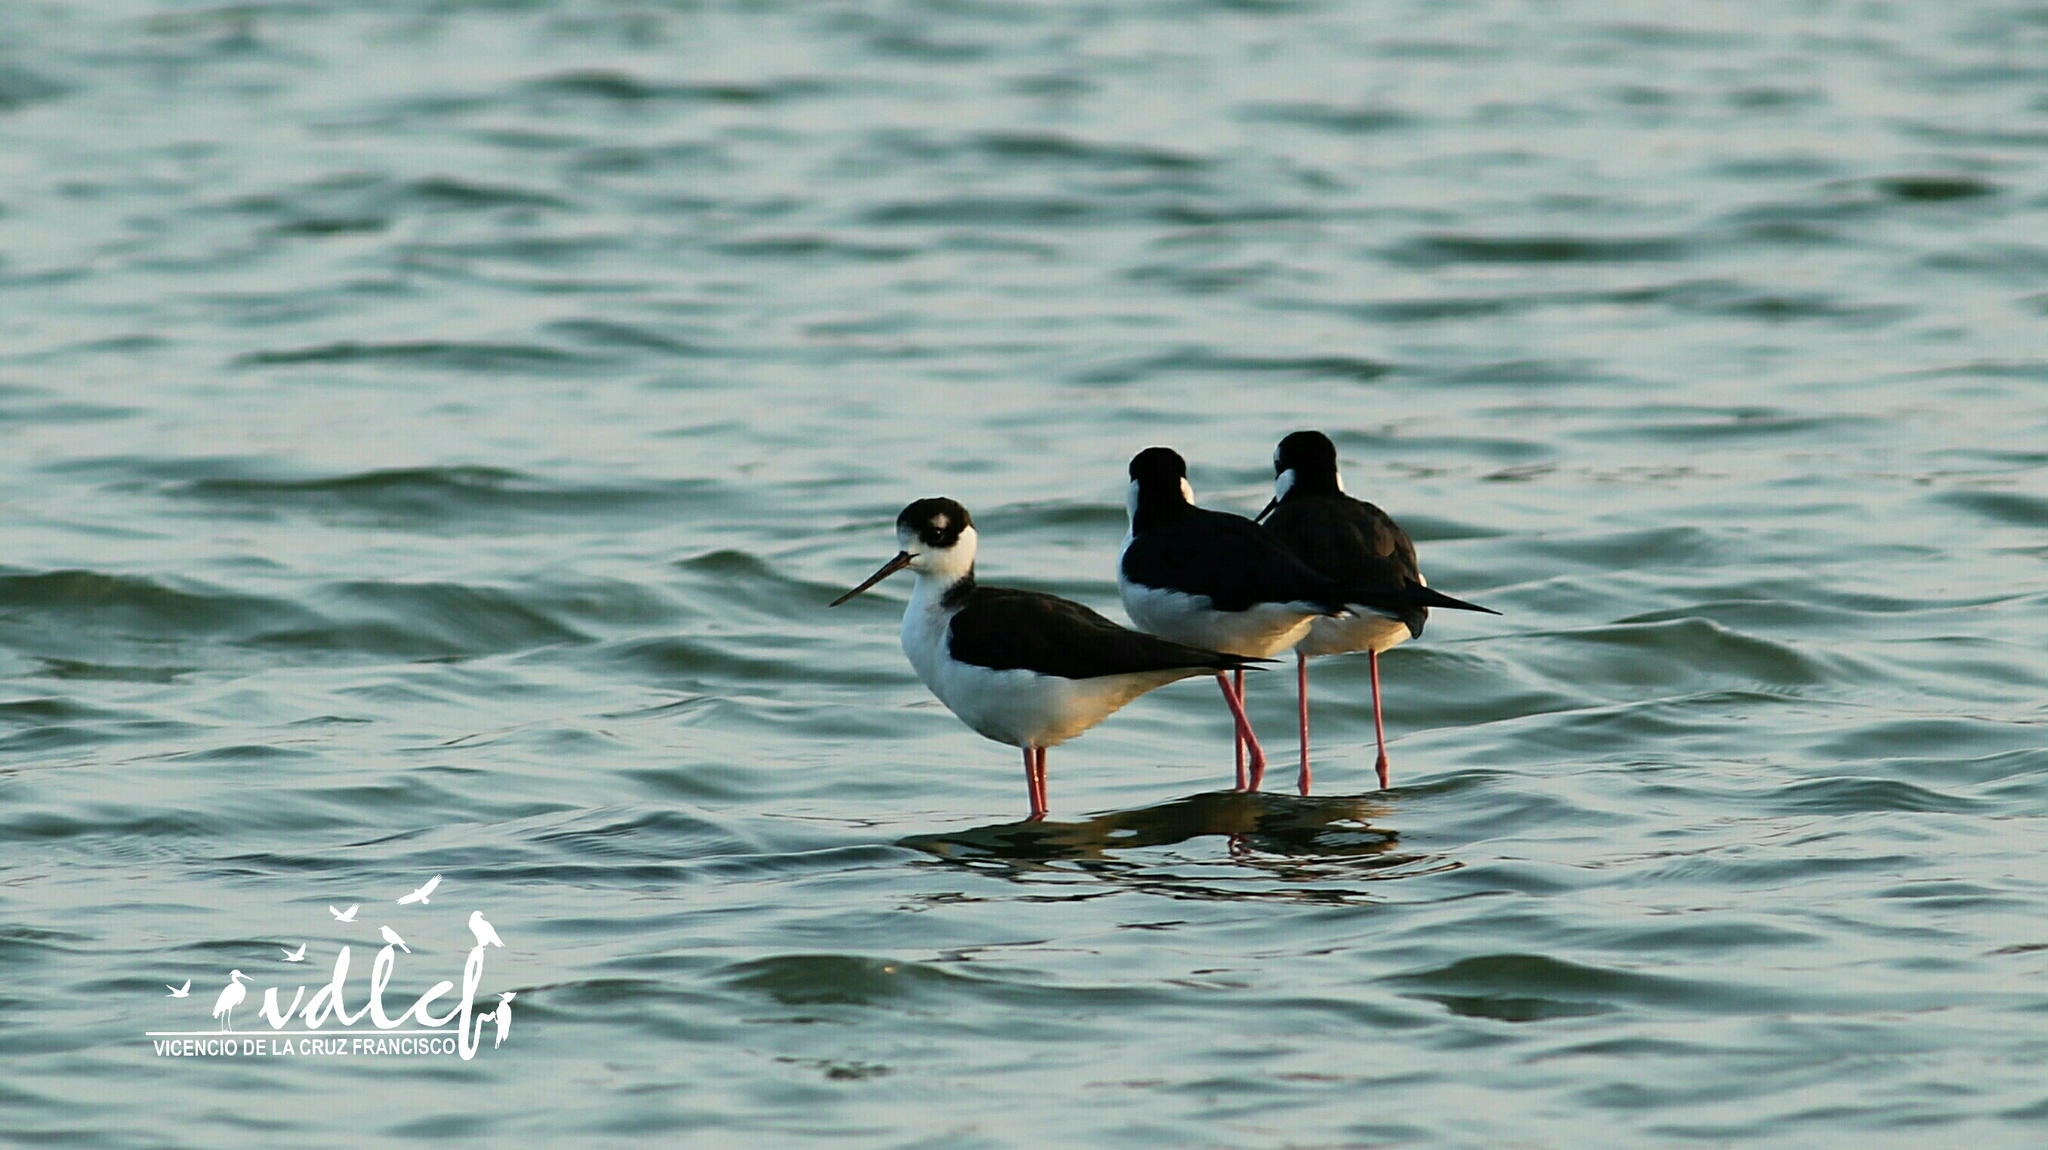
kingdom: Animalia
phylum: Chordata
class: Aves
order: Charadriiformes
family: Recurvirostridae
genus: Himantopus
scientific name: Himantopus mexicanus
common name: Black-necked stilt
